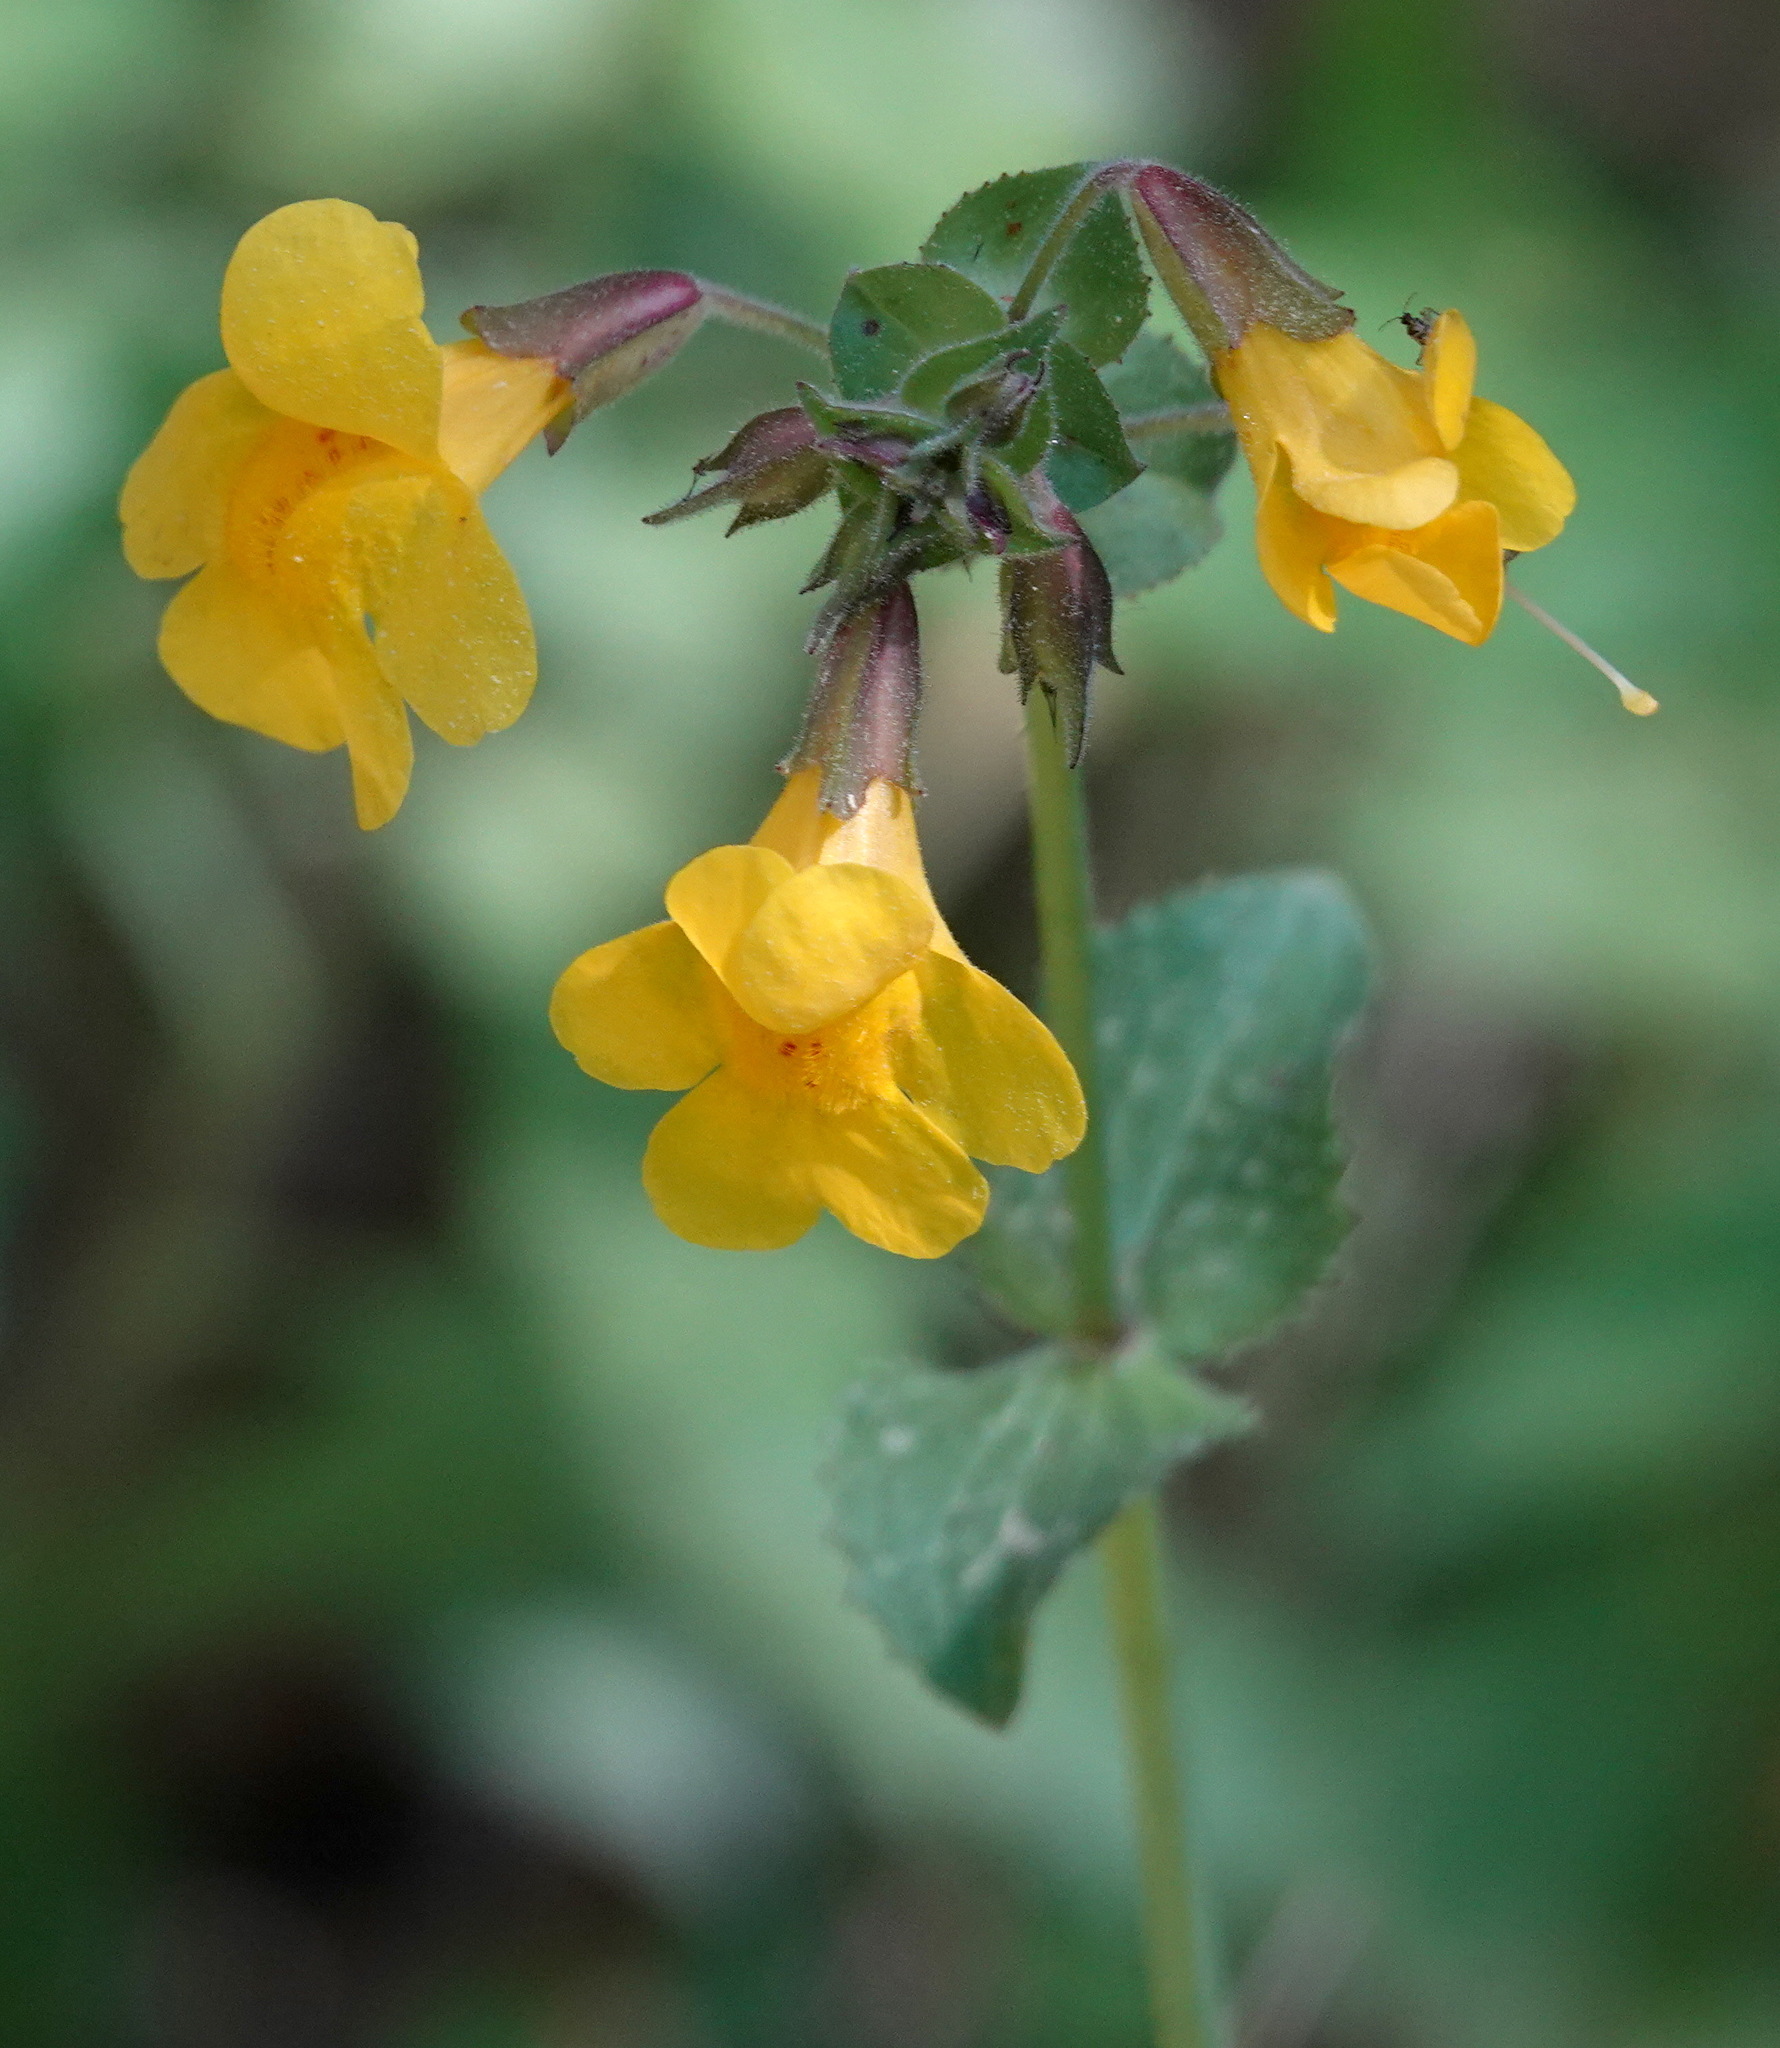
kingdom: Plantae
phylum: Tracheophyta
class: Magnoliopsida
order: Lamiales
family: Phrymaceae
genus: Erythranthe
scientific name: Erythranthe guttata
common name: Monkeyflower
